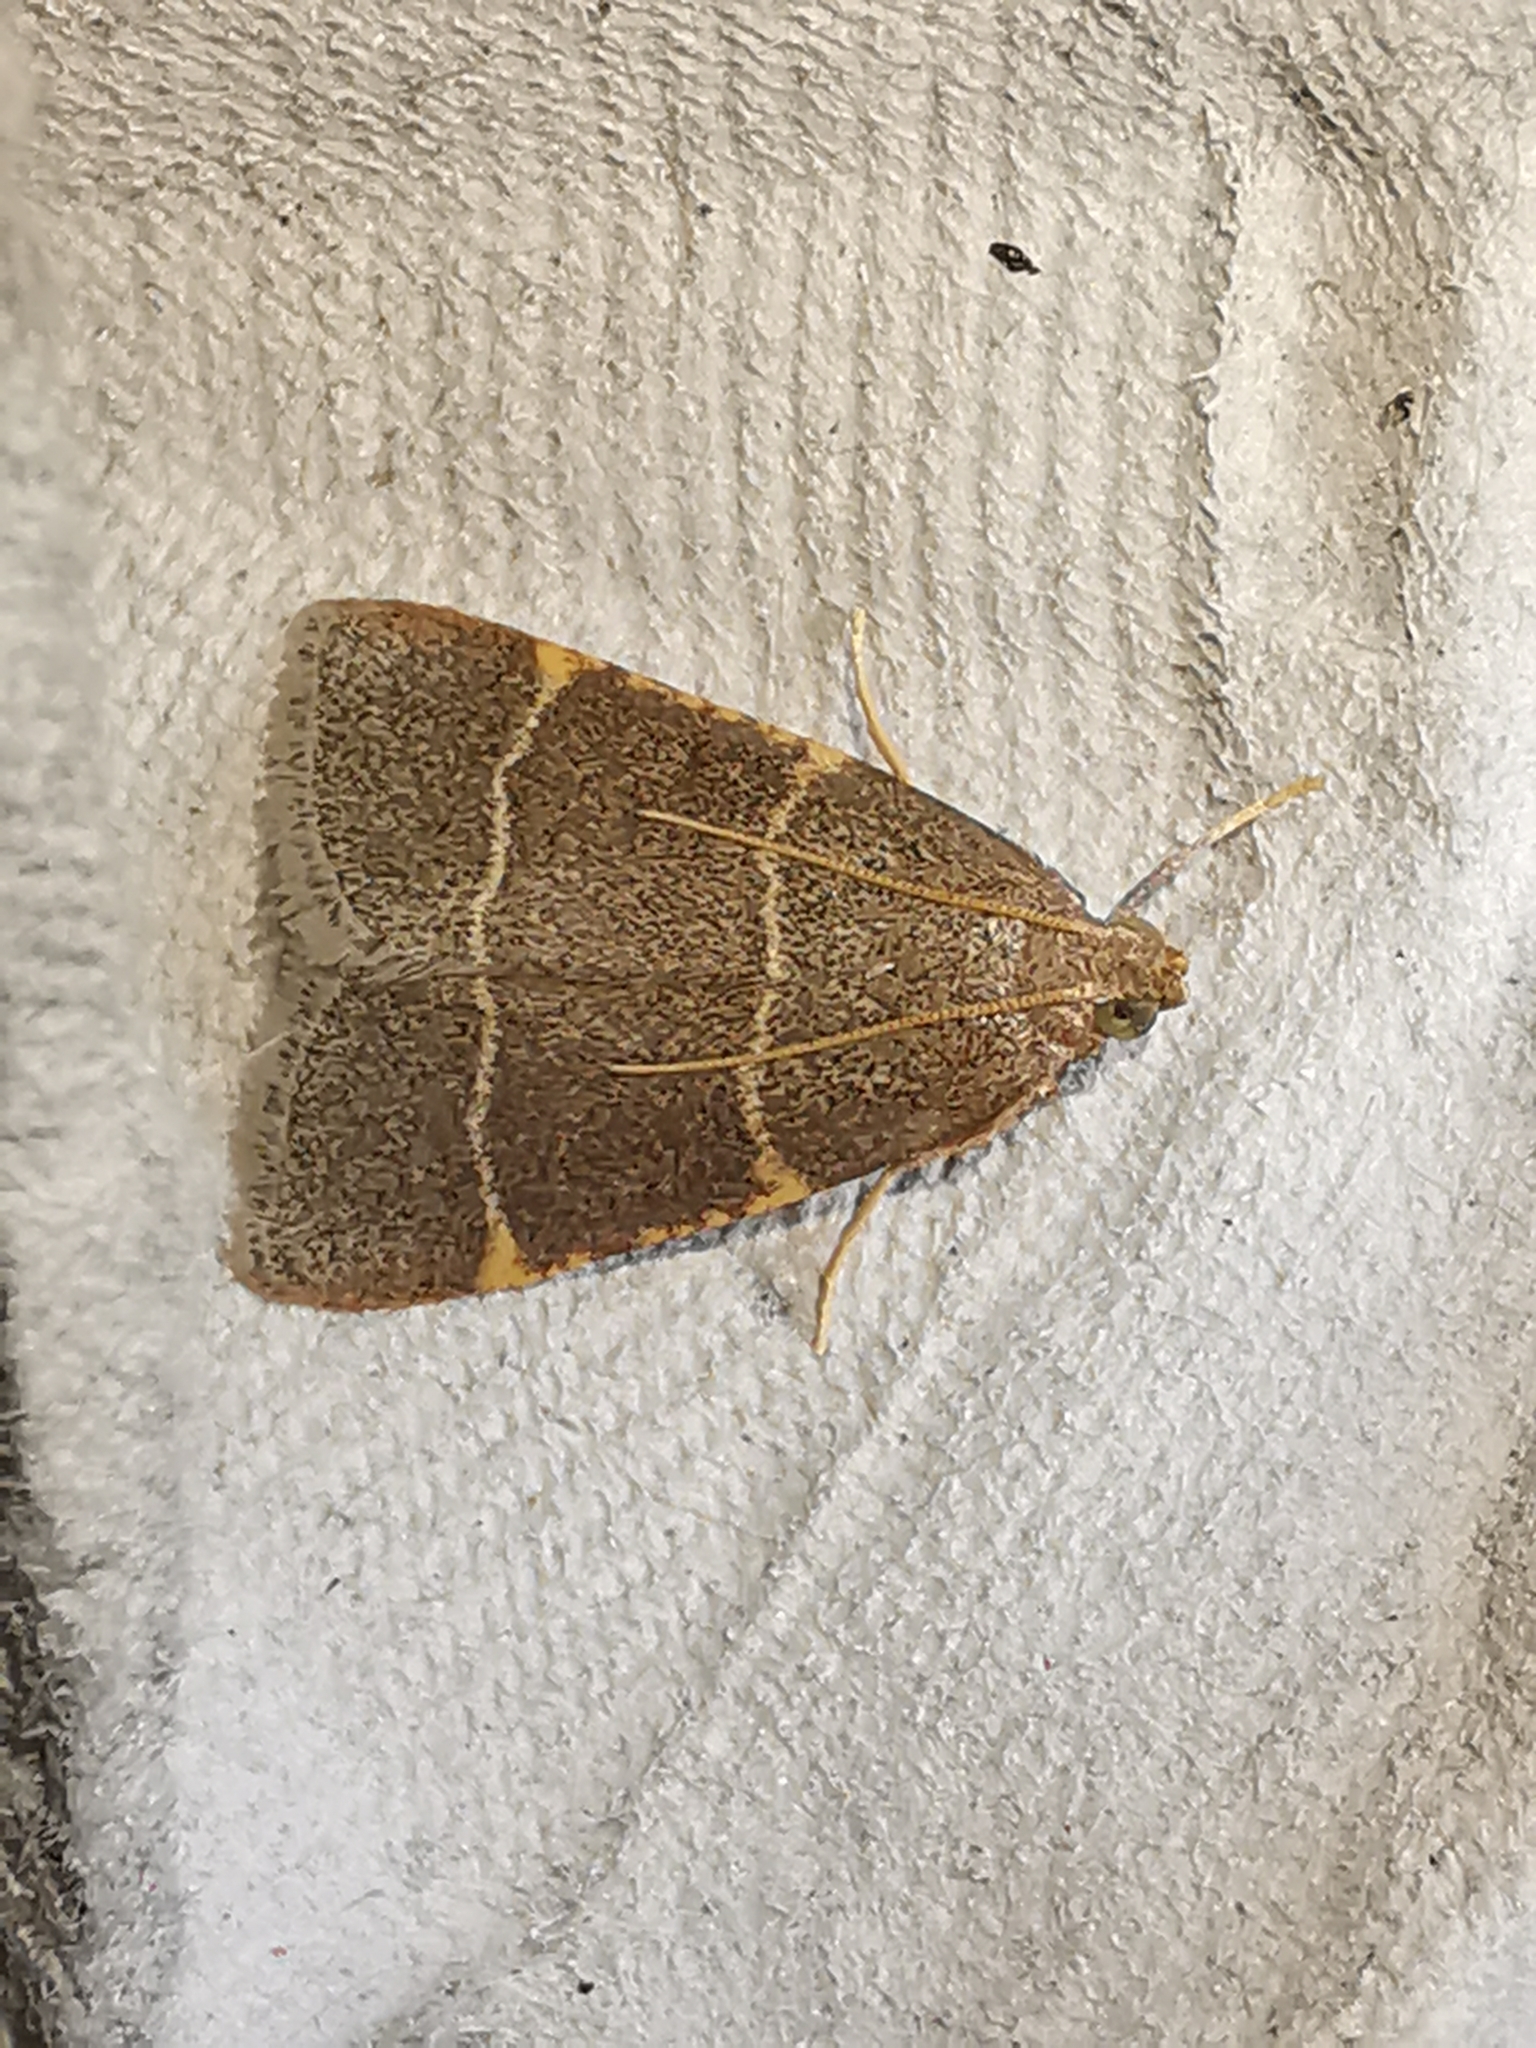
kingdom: Animalia
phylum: Arthropoda
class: Insecta
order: Lepidoptera
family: Pyralidae
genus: Hypsopygia
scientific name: Hypsopygia glaucinalis
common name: Double-striped tabby
